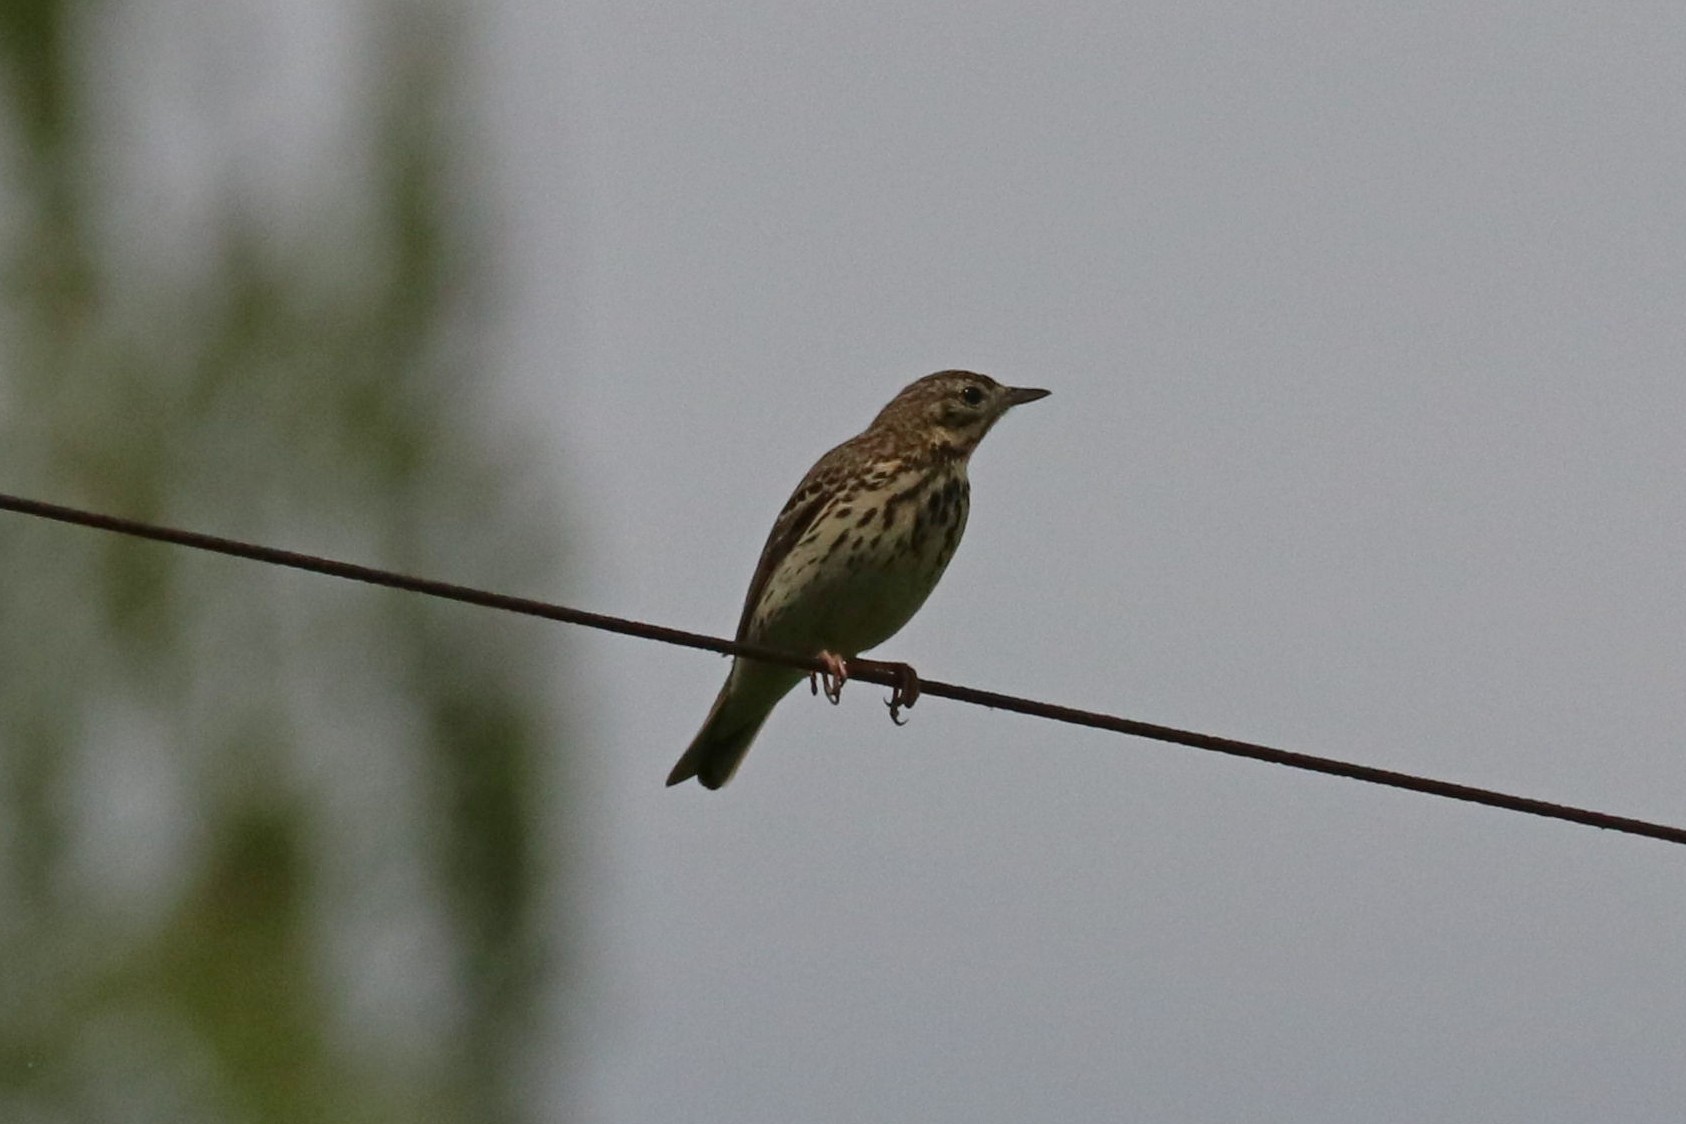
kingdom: Animalia
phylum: Chordata
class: Aves
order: Passeriformes
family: Motacillidae
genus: Anthus
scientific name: Anthus trivialis
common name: Tree pipit
